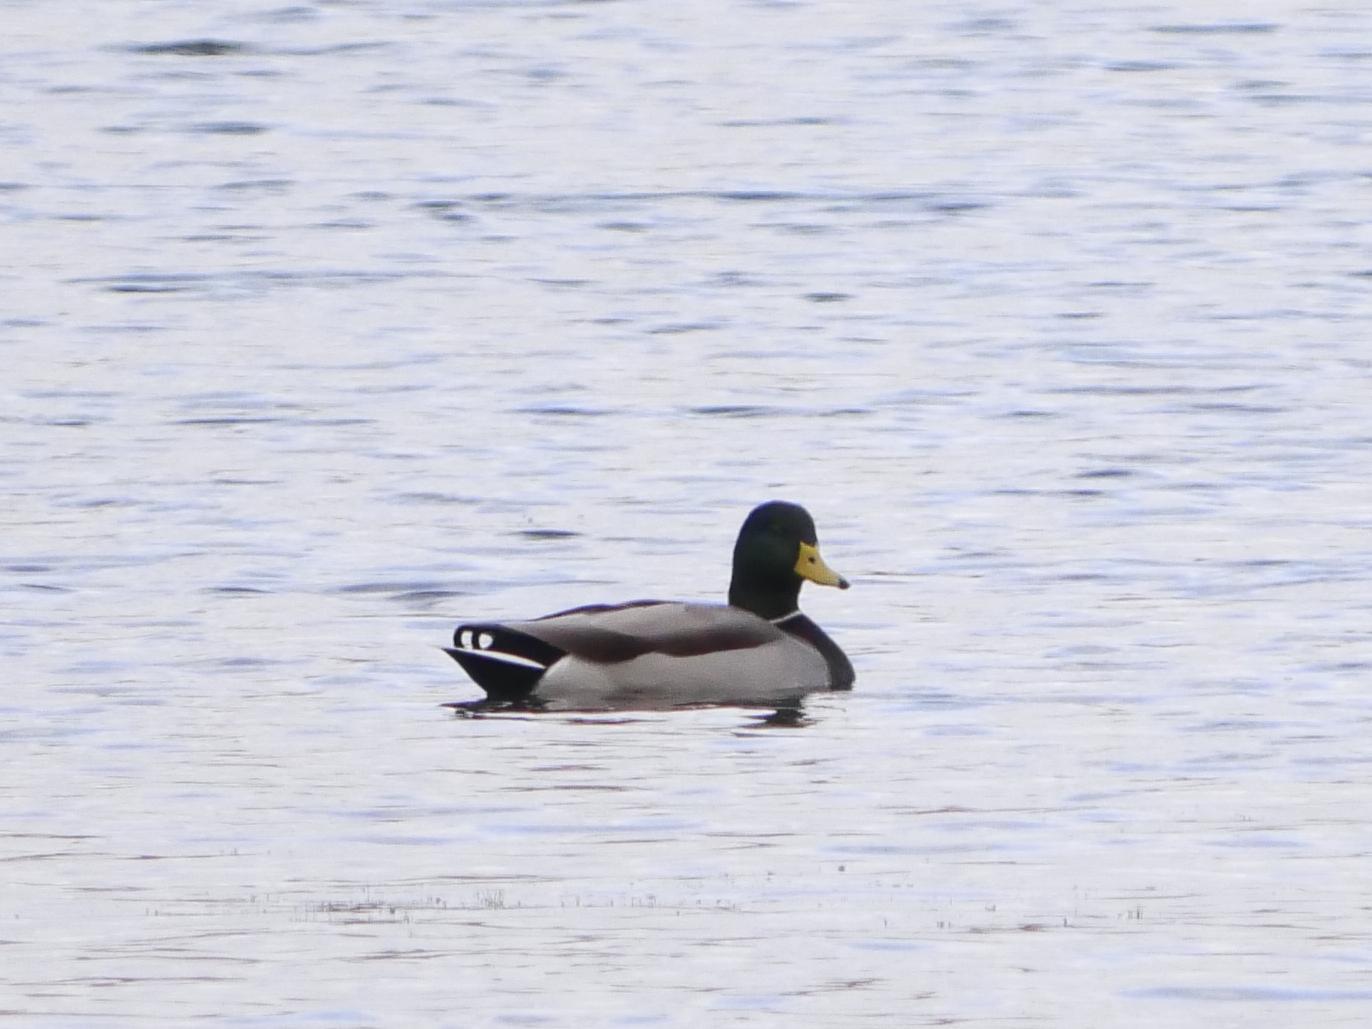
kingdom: Animalia
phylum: Chordata
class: Aves
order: Anseriformes
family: Anatidae
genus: Anas
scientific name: Anas platyrhynchos
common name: Mallard
